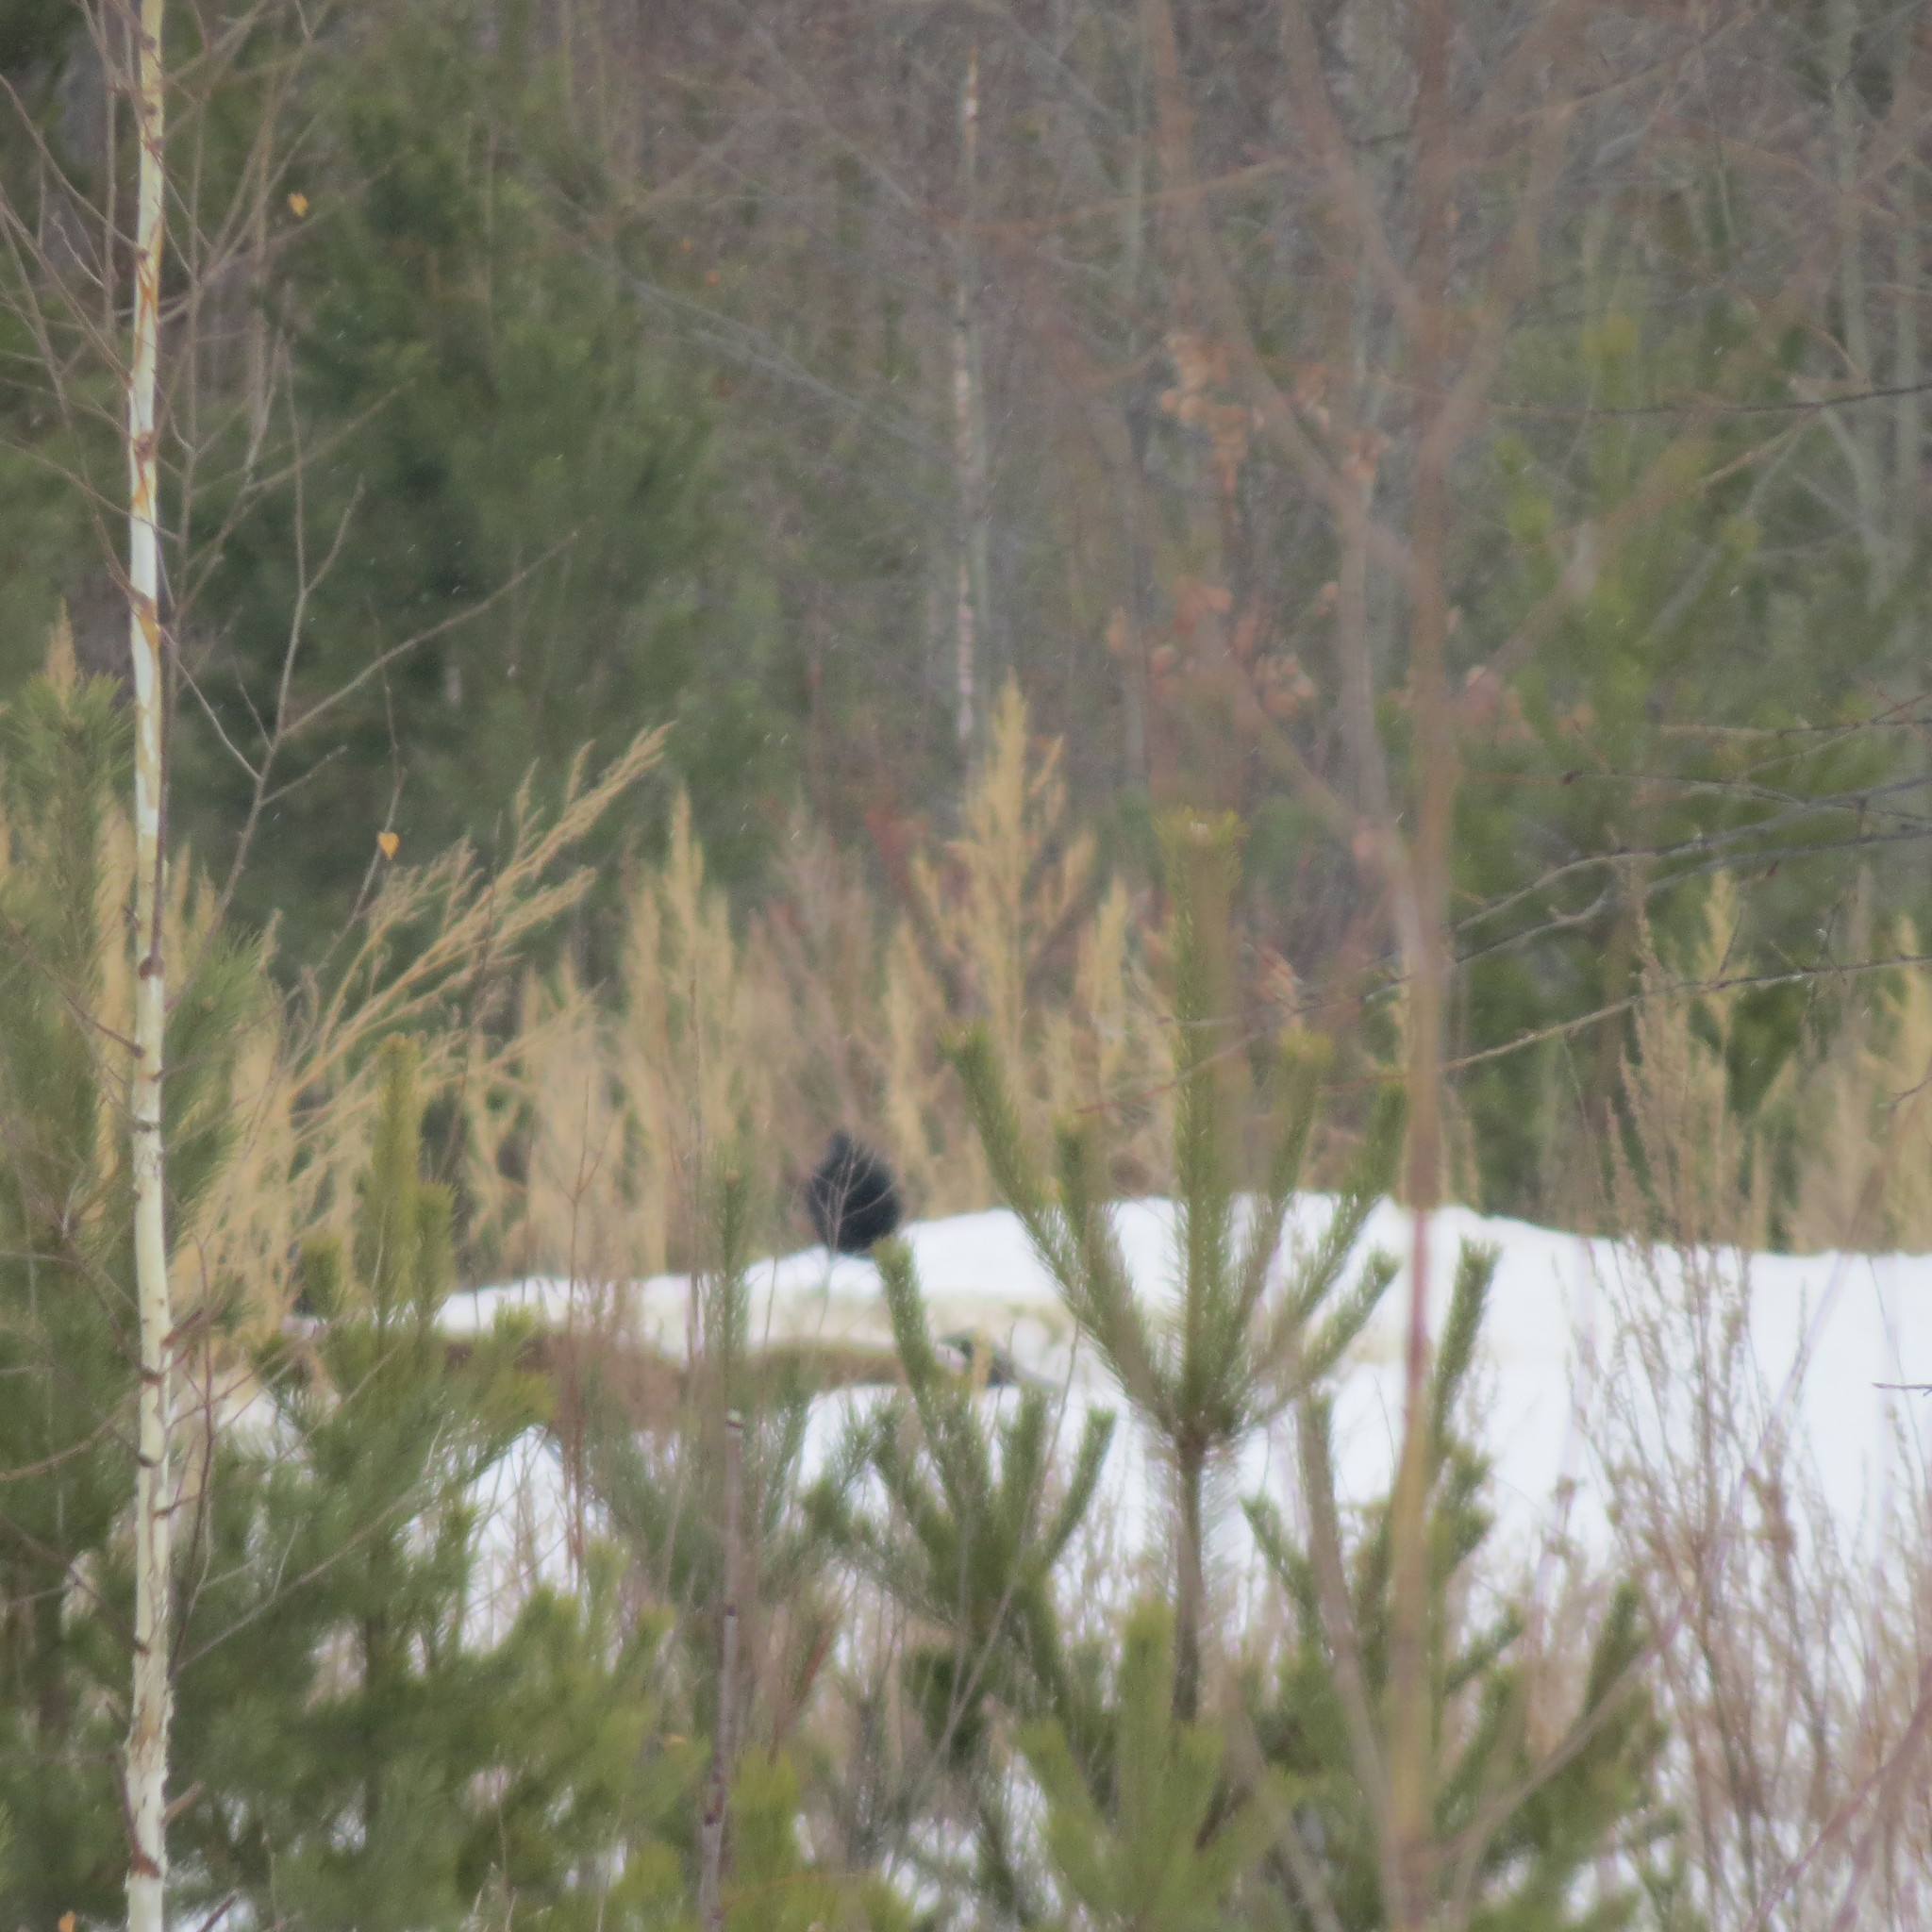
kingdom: Animalia
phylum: Chordata
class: Aves
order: Passeriformes
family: Corvidae
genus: Corvus
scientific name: Corvus corax
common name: Common raven
